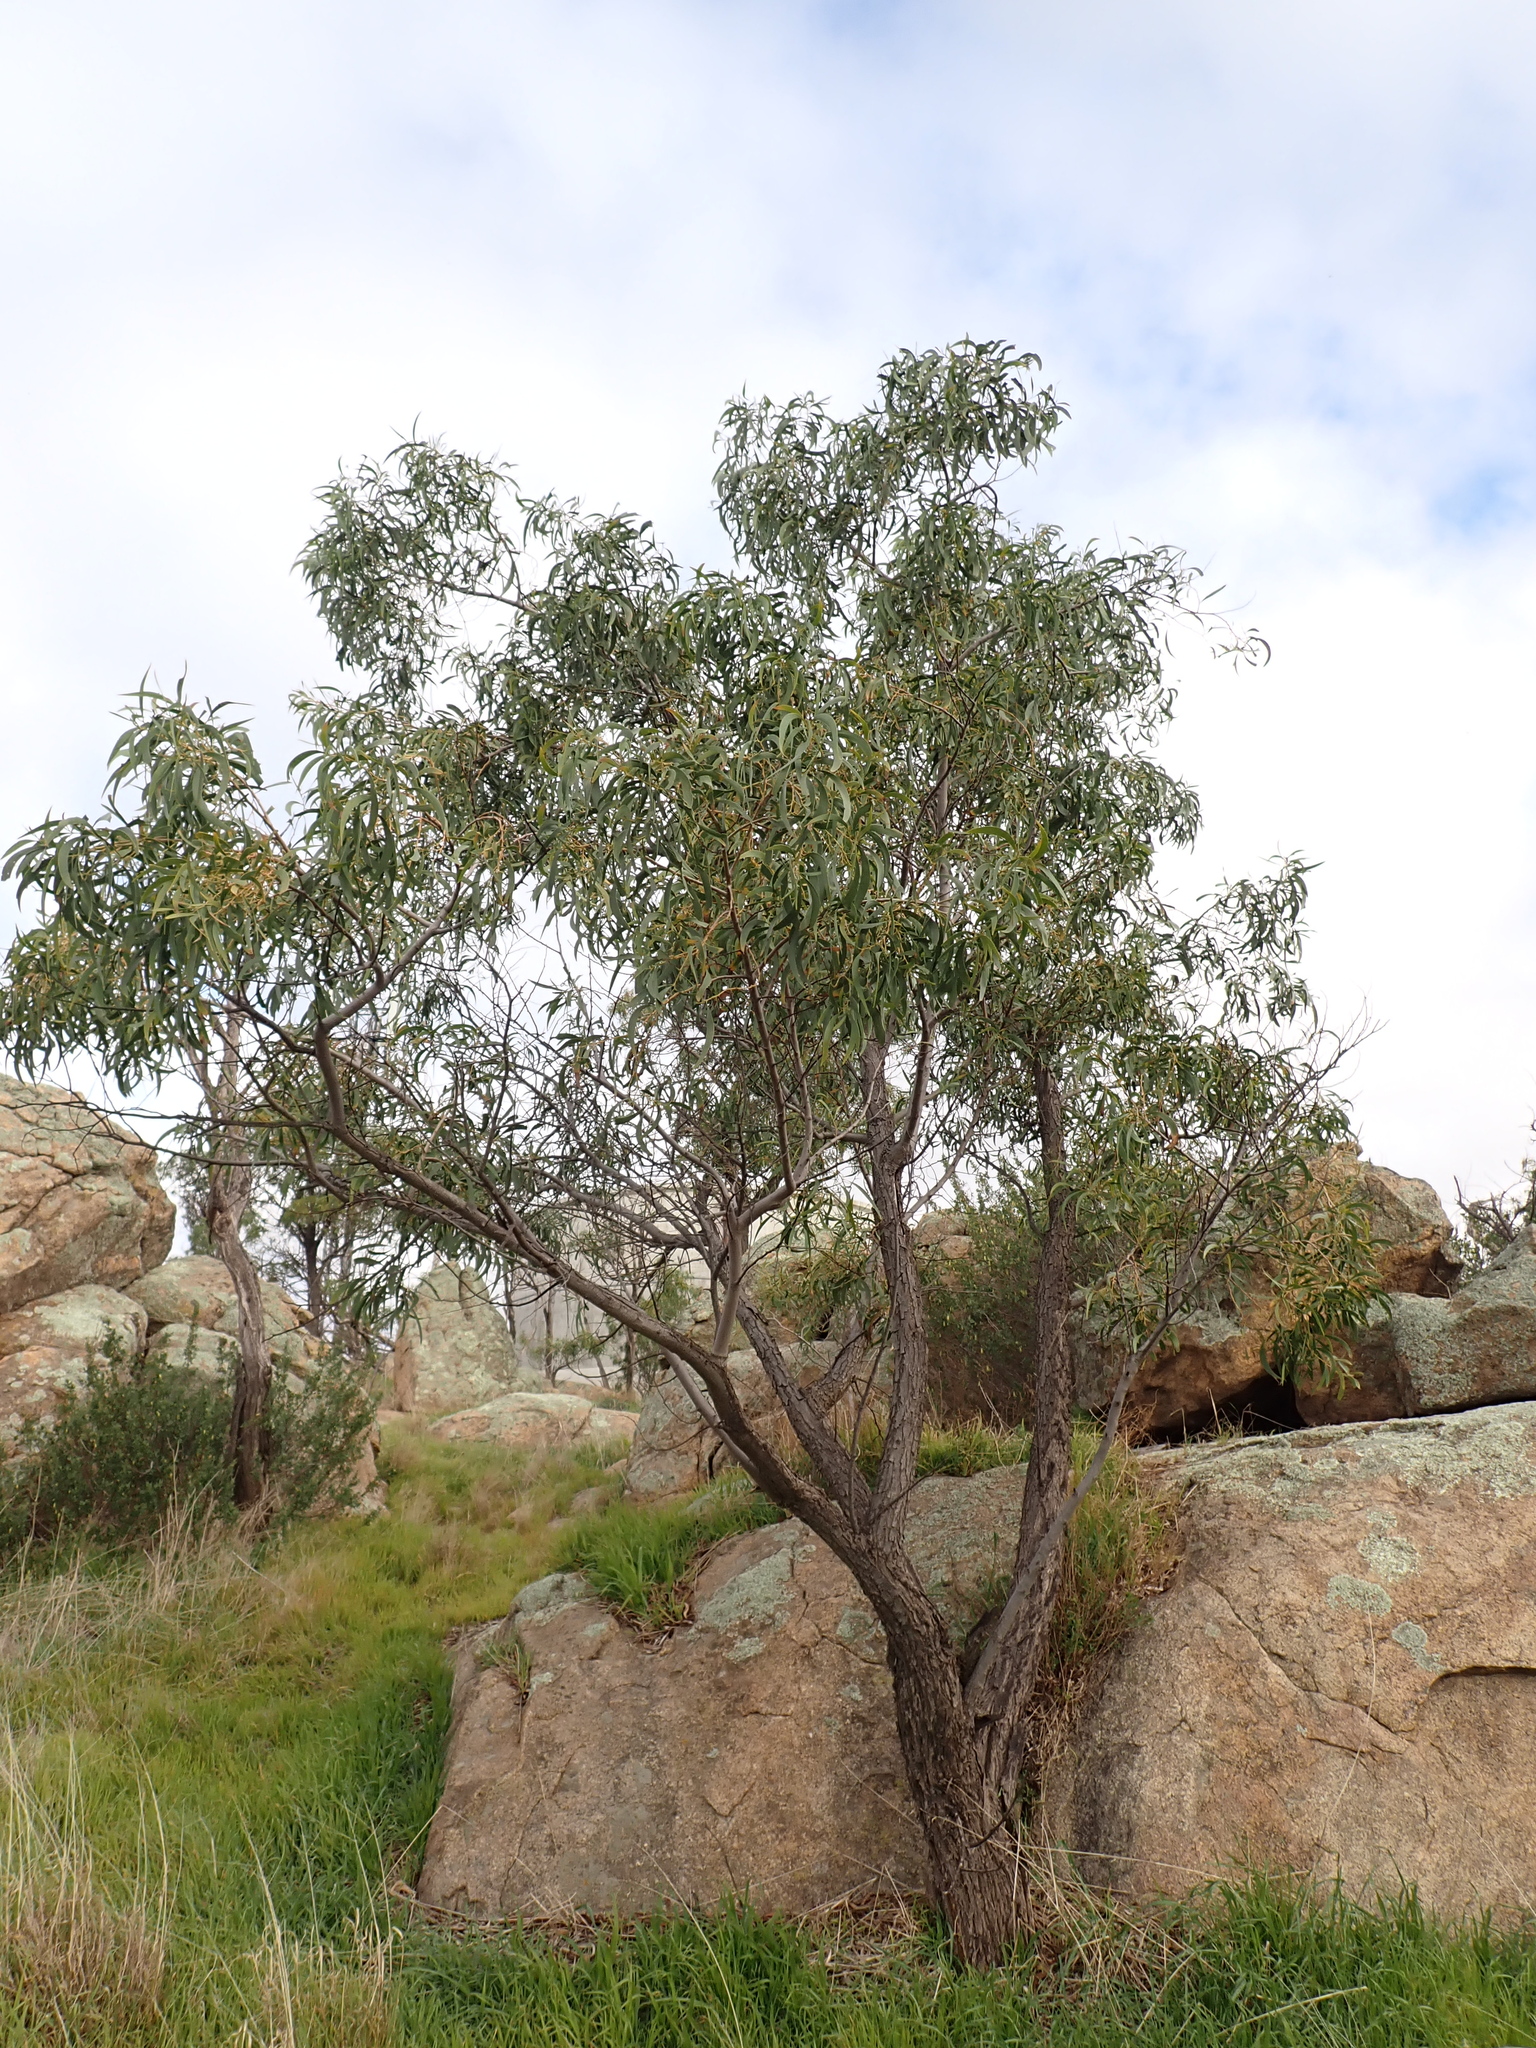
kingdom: Plantae
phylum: Tracheophyta
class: Magnoliopsida
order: Fabales
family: Fabaceae
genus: Acacia
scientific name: Acacia implexa
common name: Black wattle
